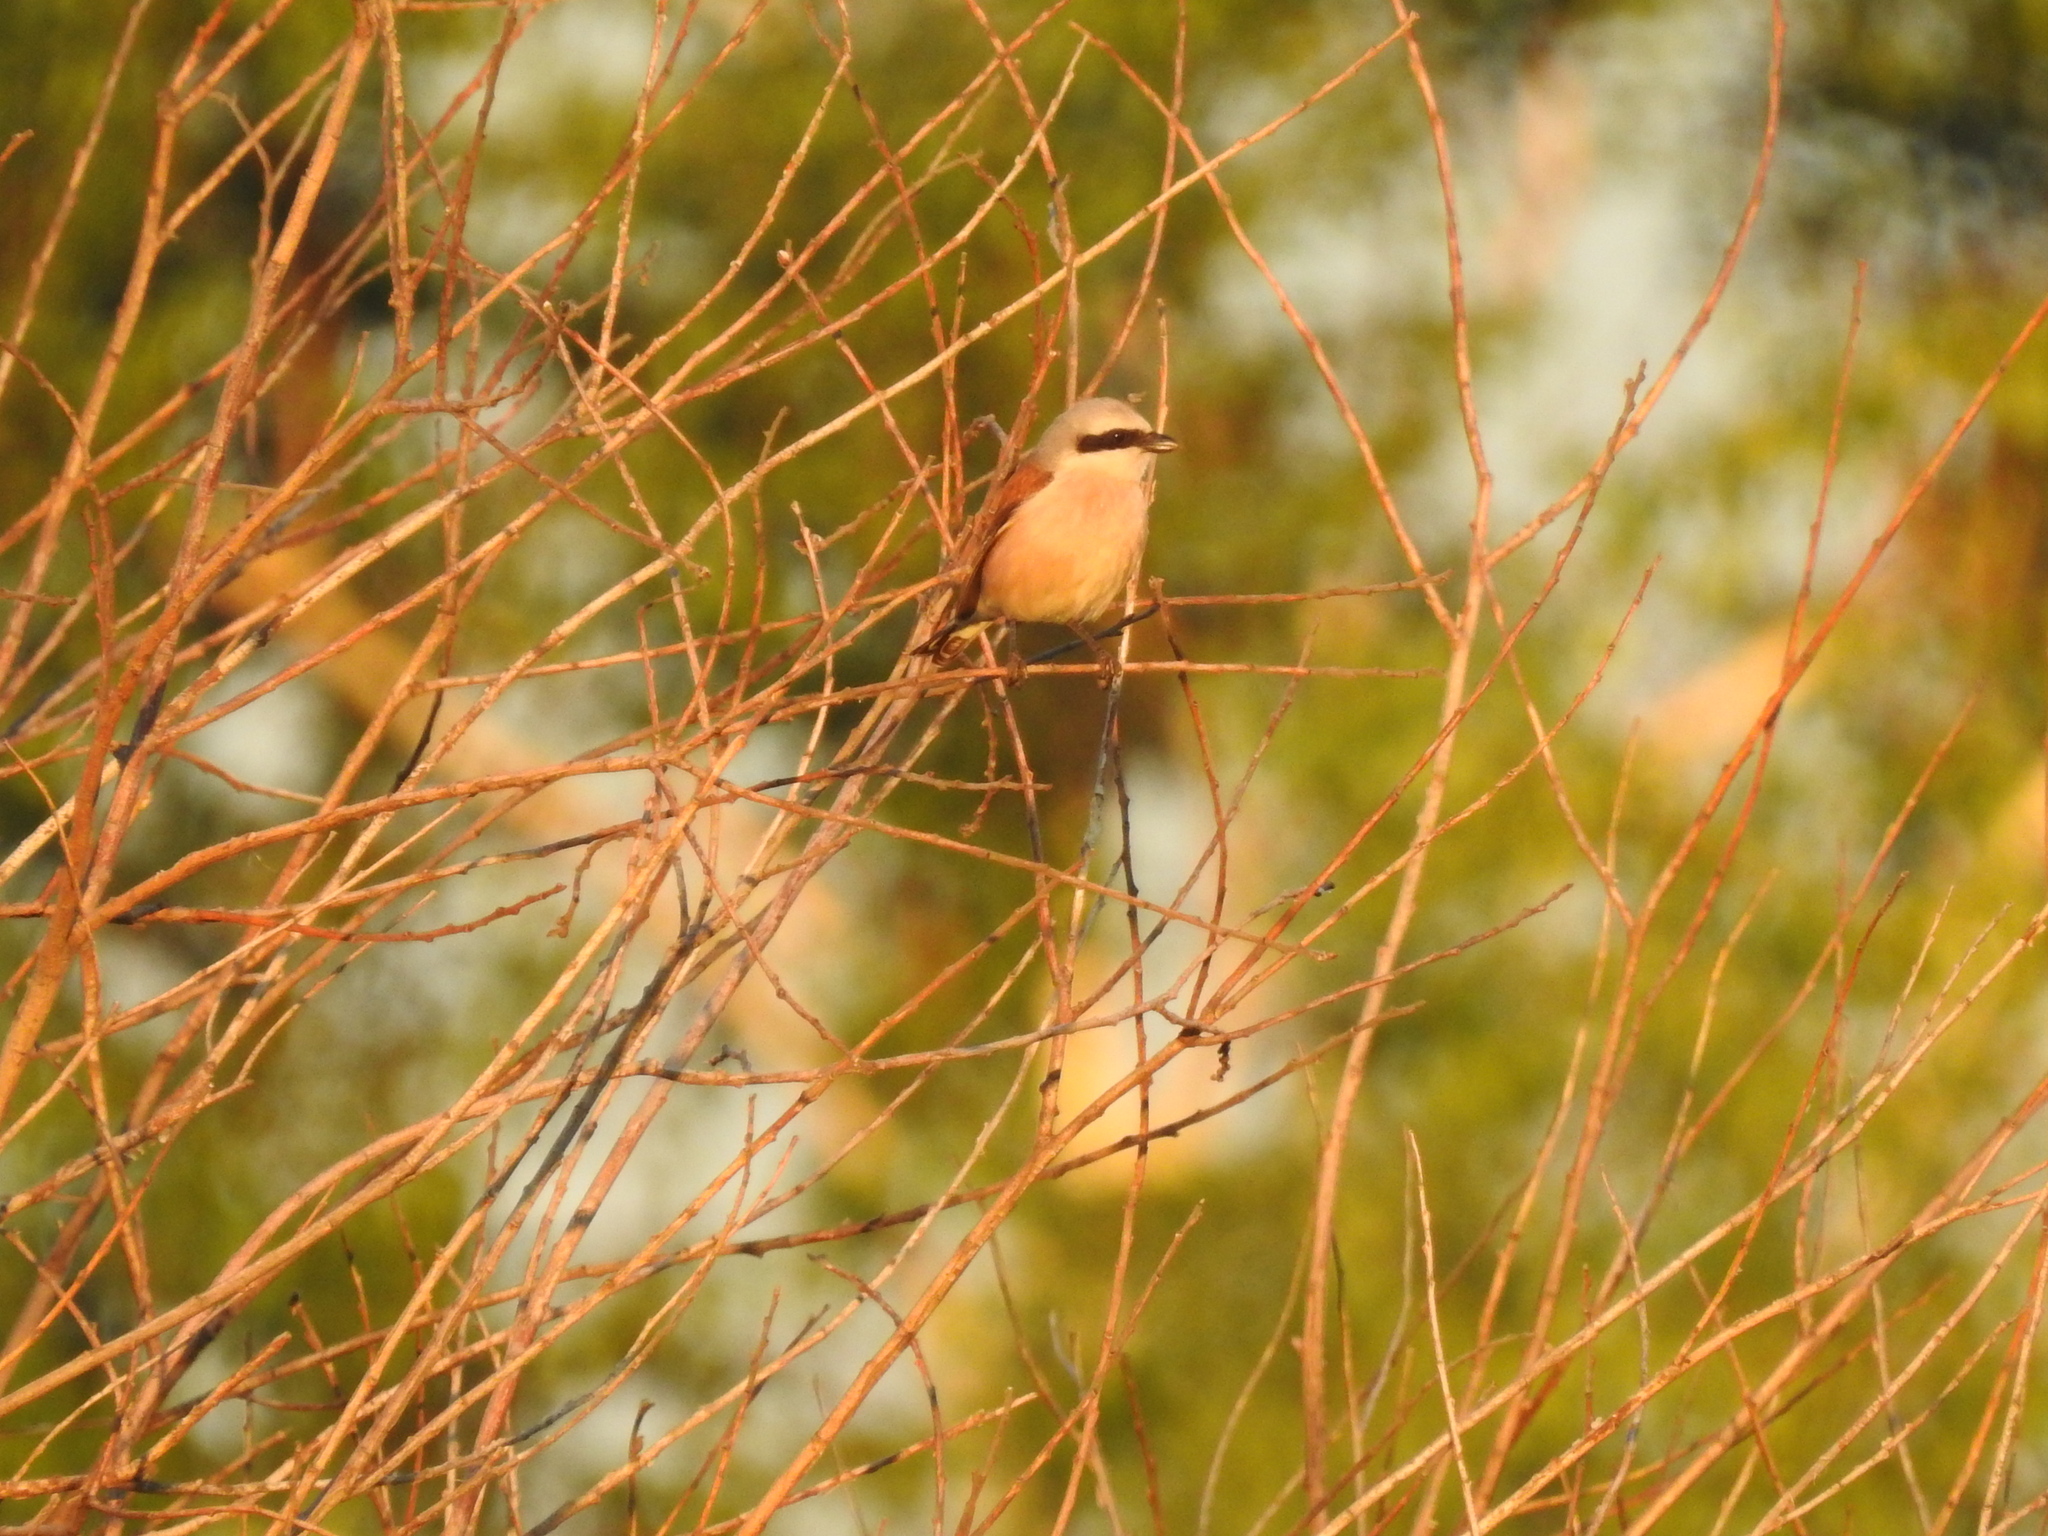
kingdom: Animalia
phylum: Chordata
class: Aves
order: Passeriformes
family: Laniidae
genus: Lanius
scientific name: Lanius collurio
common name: Red-backed shrike
